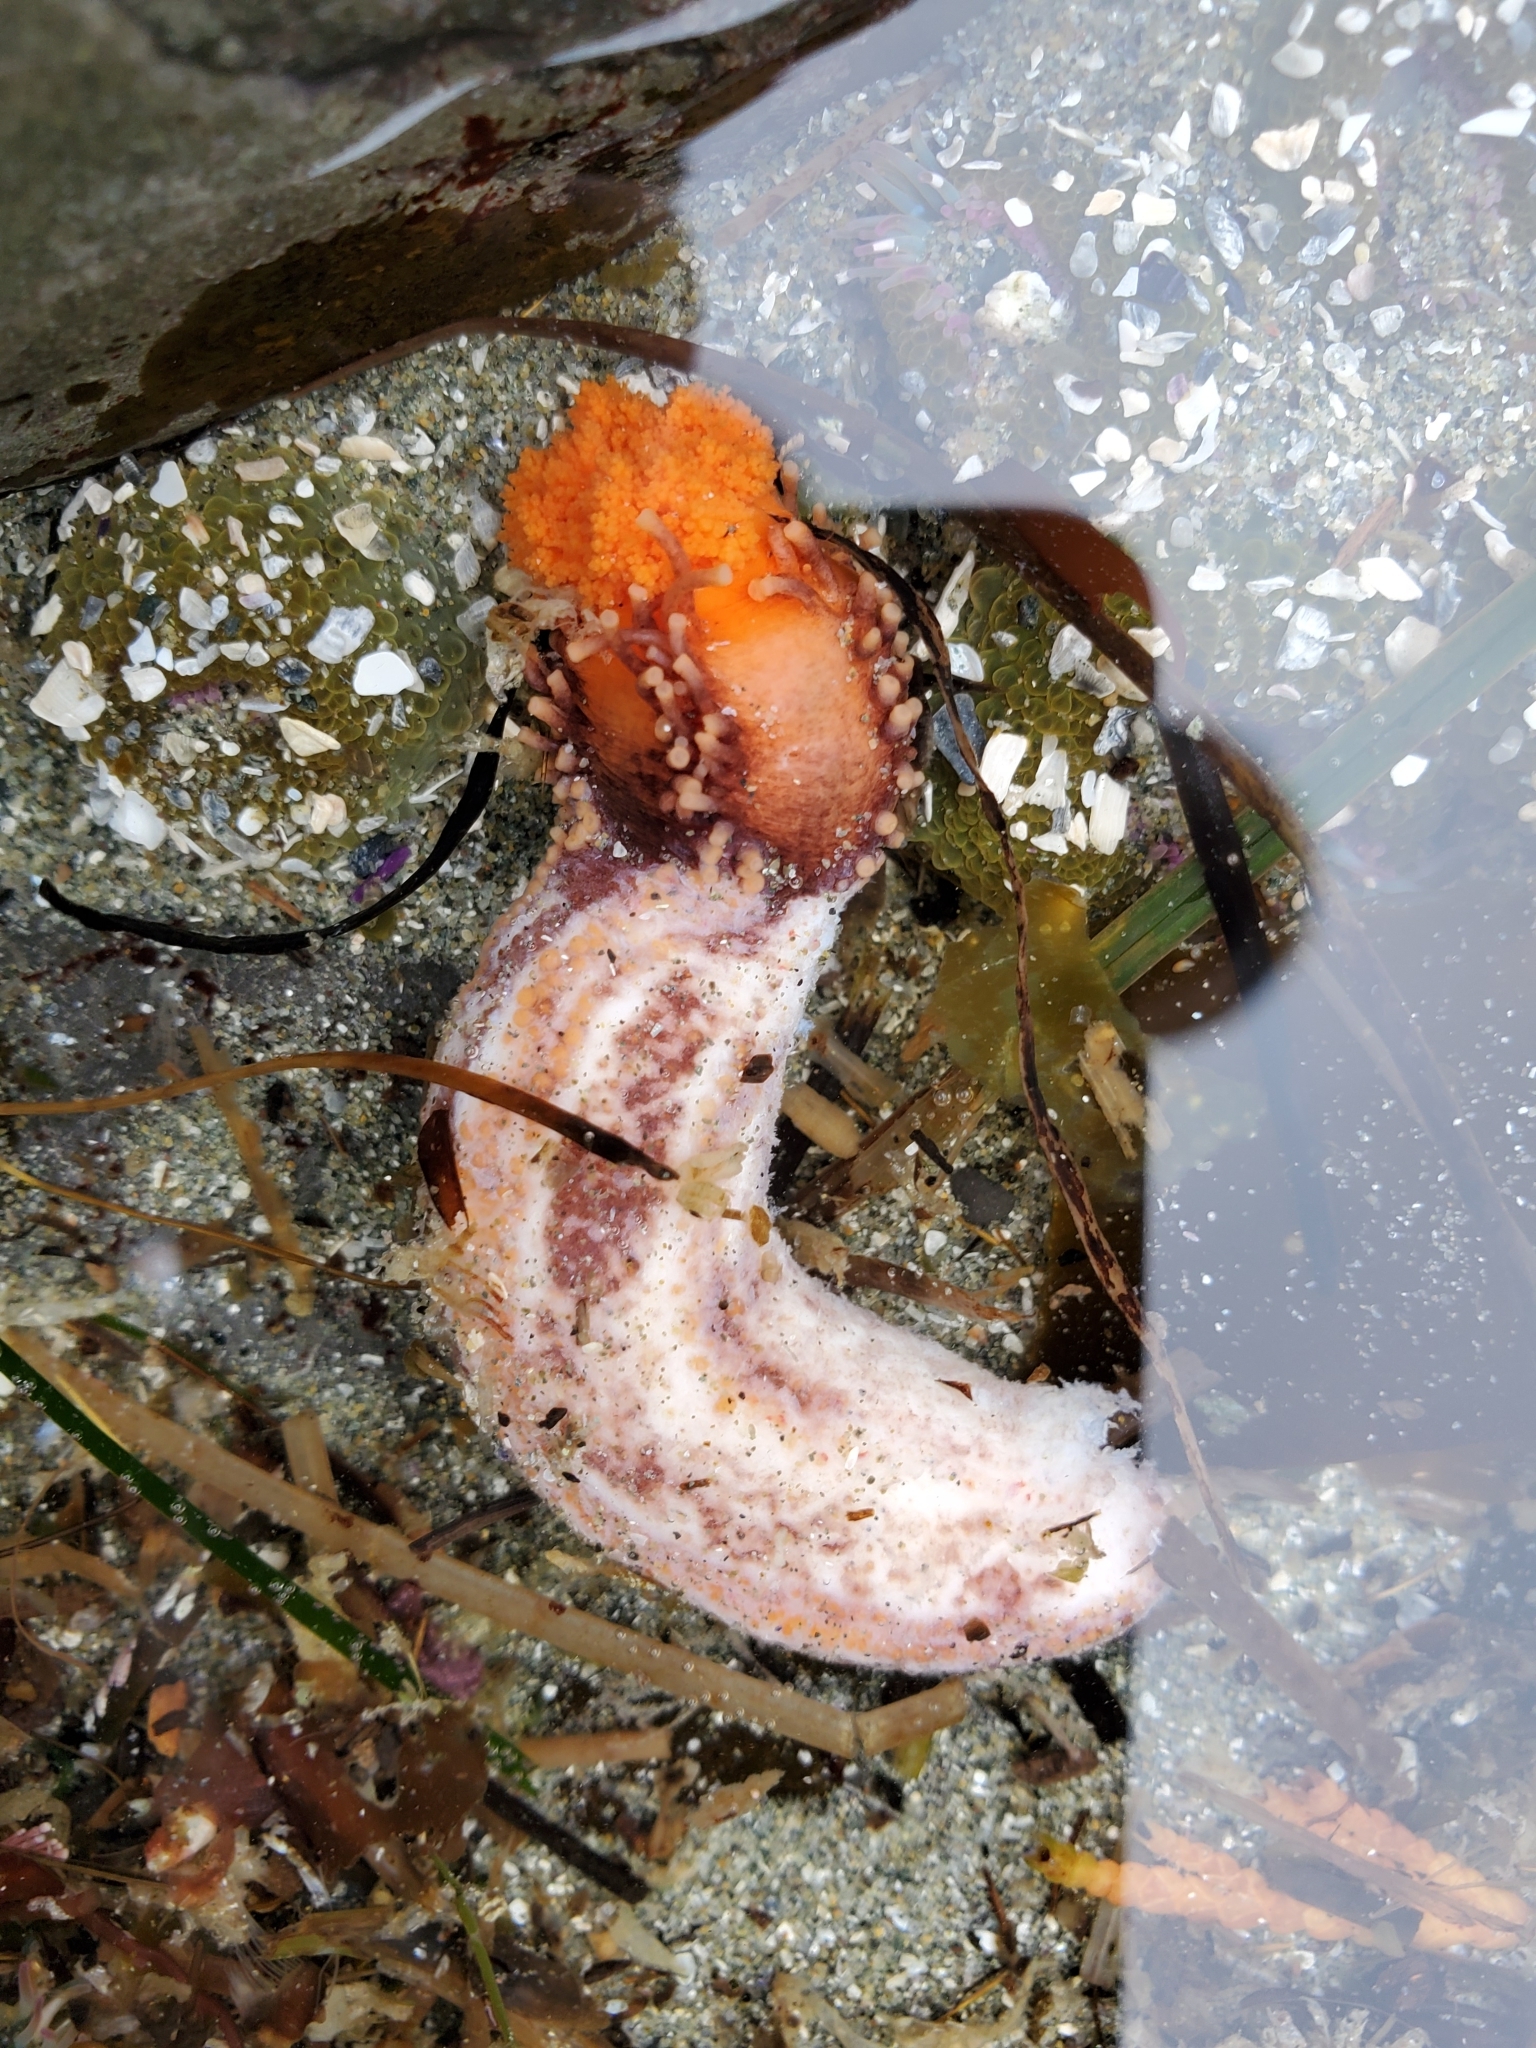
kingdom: Animalia
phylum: Echinodermata
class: Holothuroidea
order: Dendrochirotida
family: Cucumariidae
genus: Cucumaria
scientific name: Cucumaria miniata
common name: Orange sea cucumber
